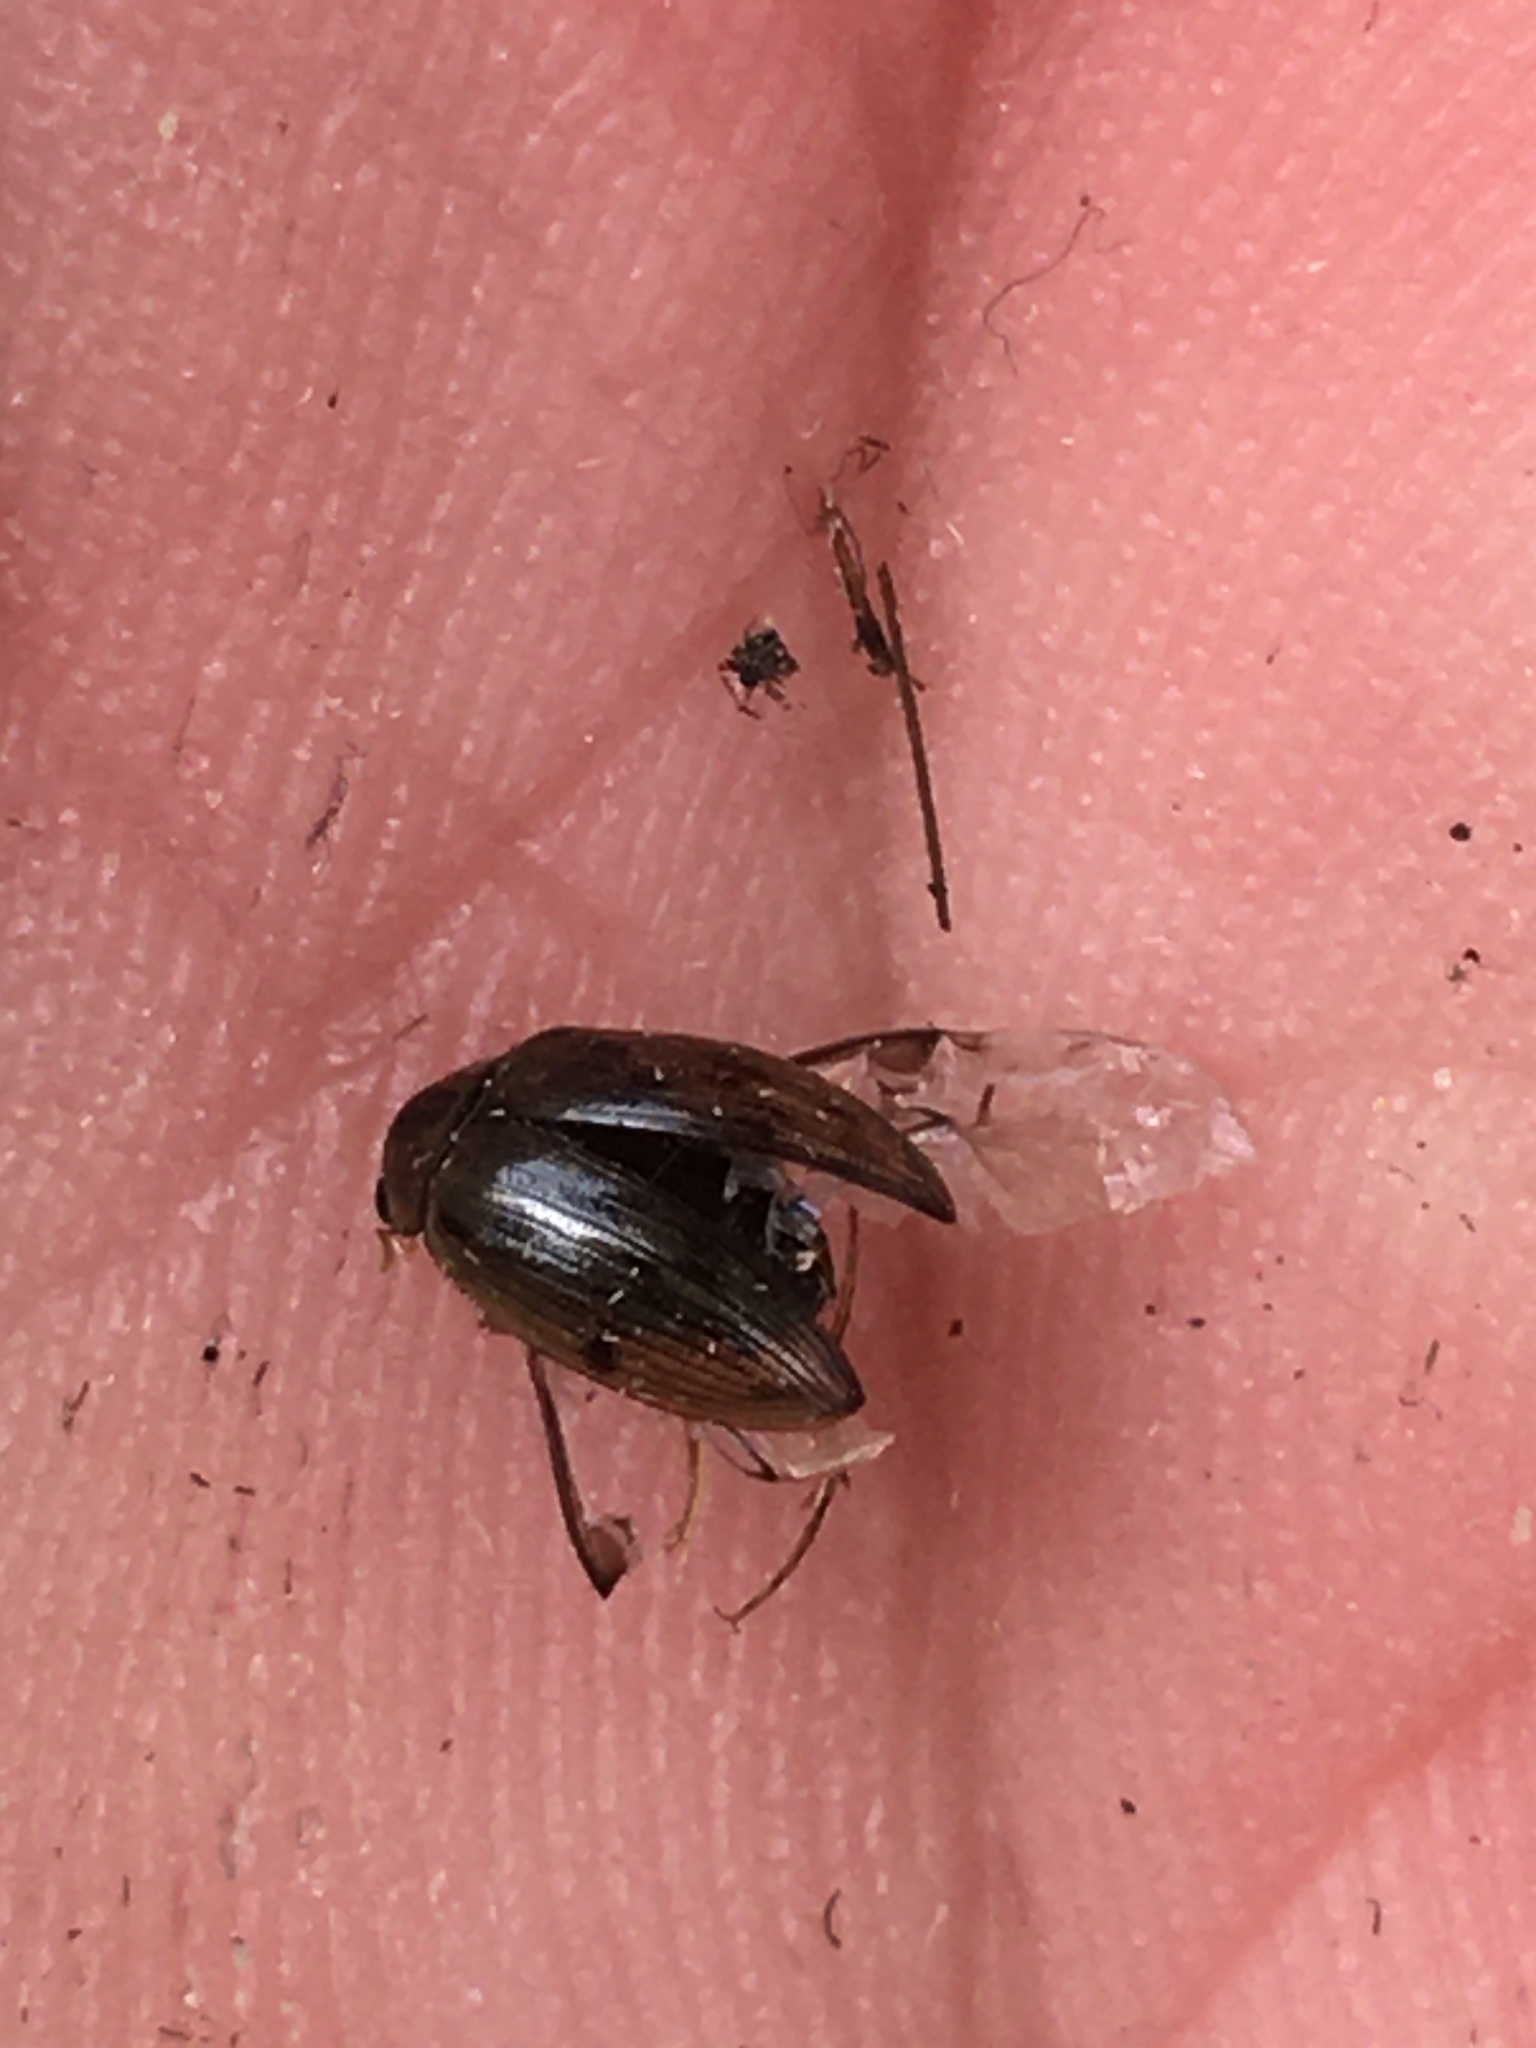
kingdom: Animalia
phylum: Arthropoda
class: Insecta
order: Coleoptera
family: Hydrophilidae
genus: Berosus
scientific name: Berosus
